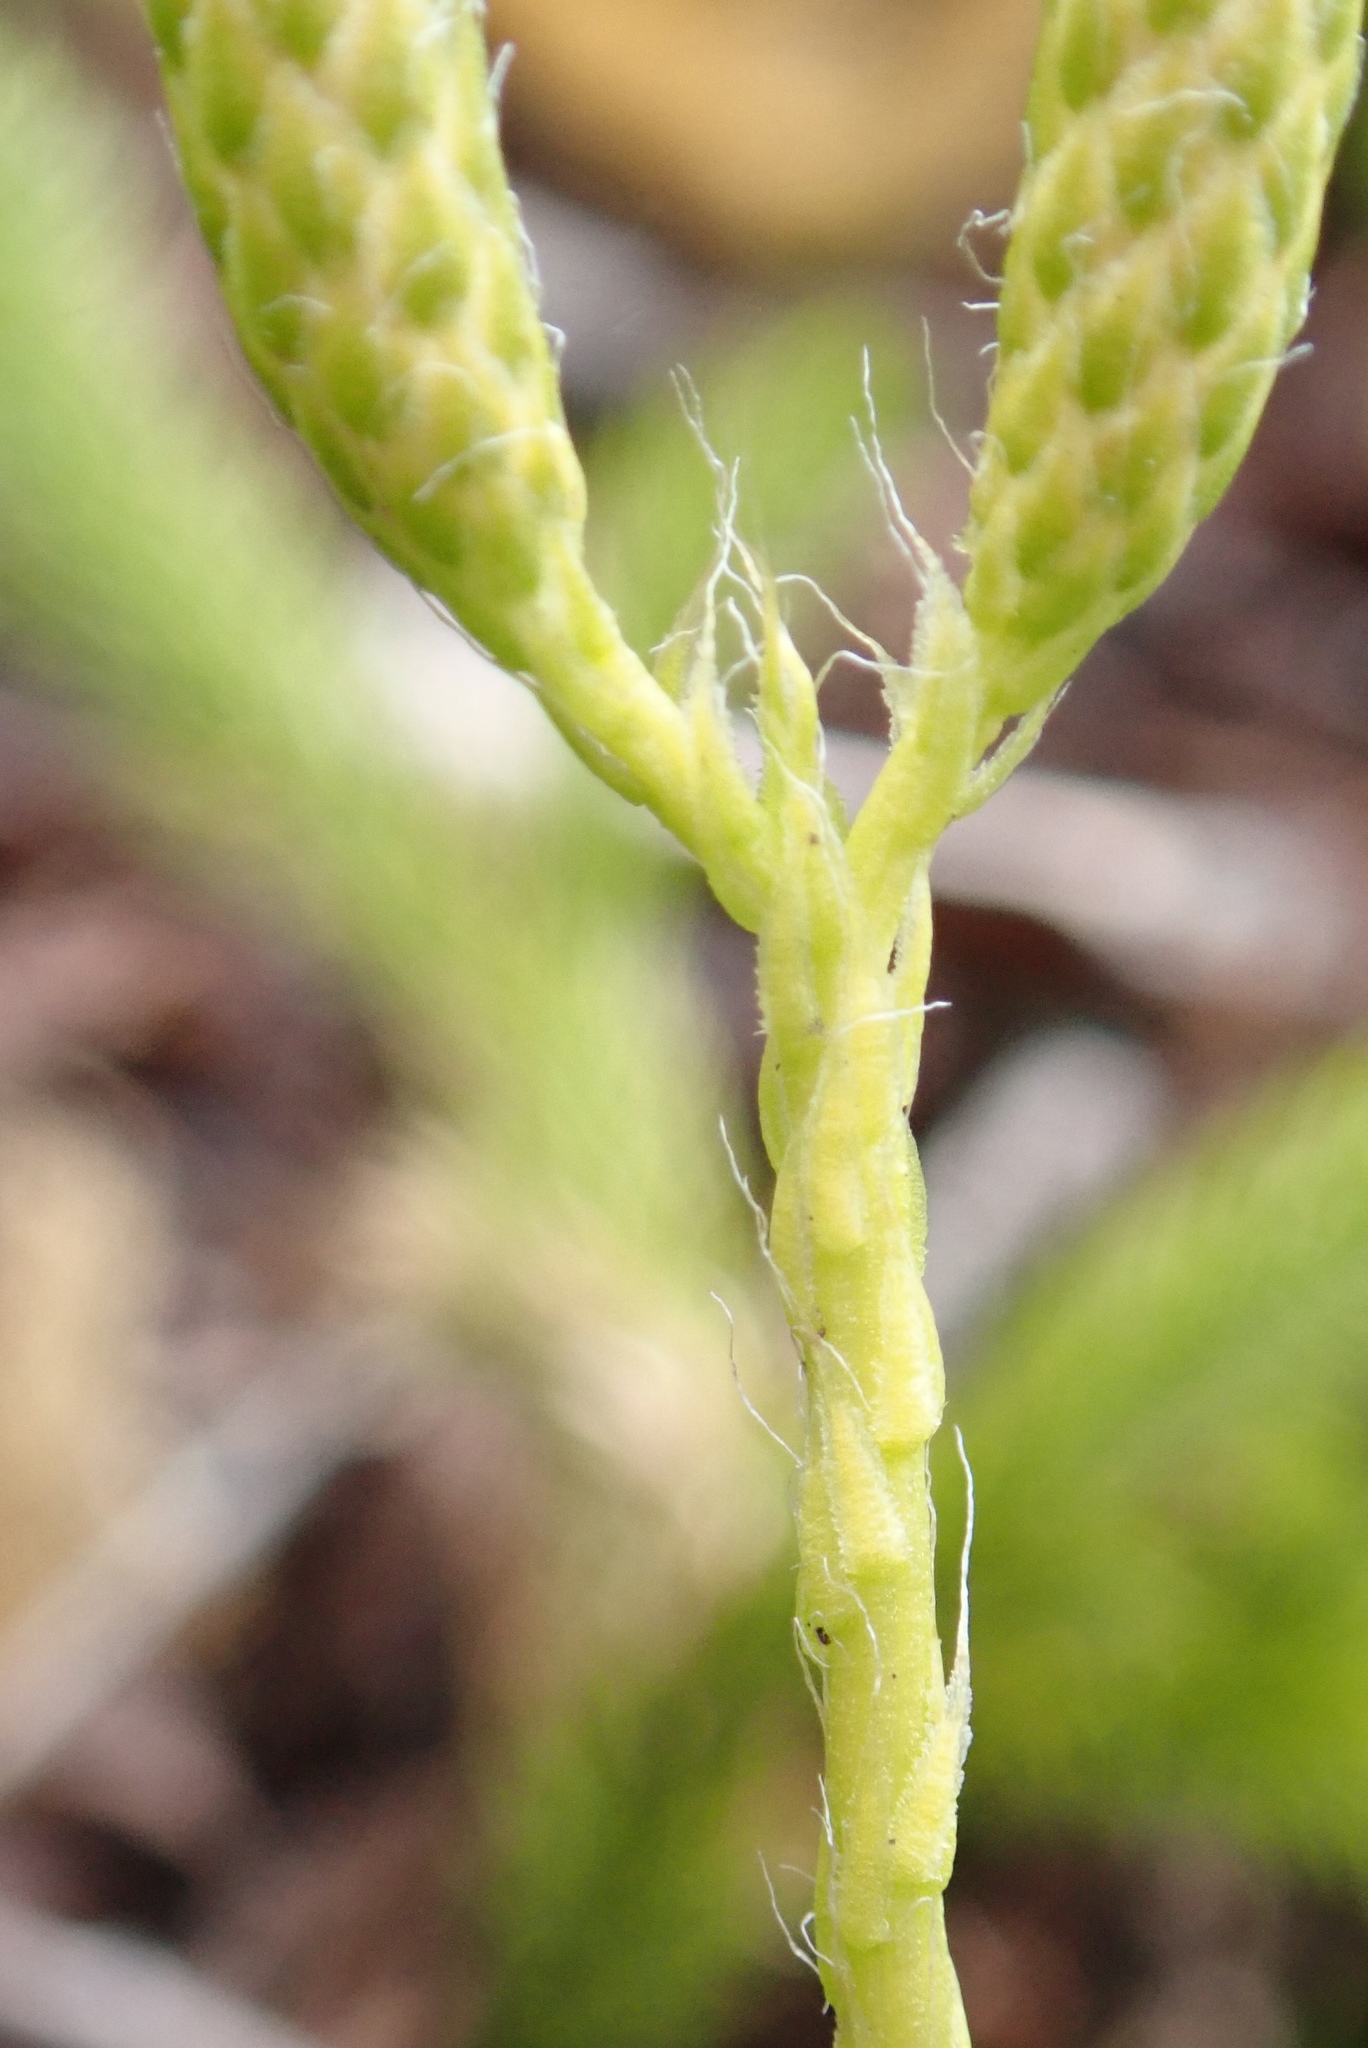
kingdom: Plantae
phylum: Tracheophyta
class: Lycopodiopsida
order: Lycopodiales
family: Lycopodiaceae
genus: Lycopodium
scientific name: Lycopodium clavatum
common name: Stag's-horn clubmoss
